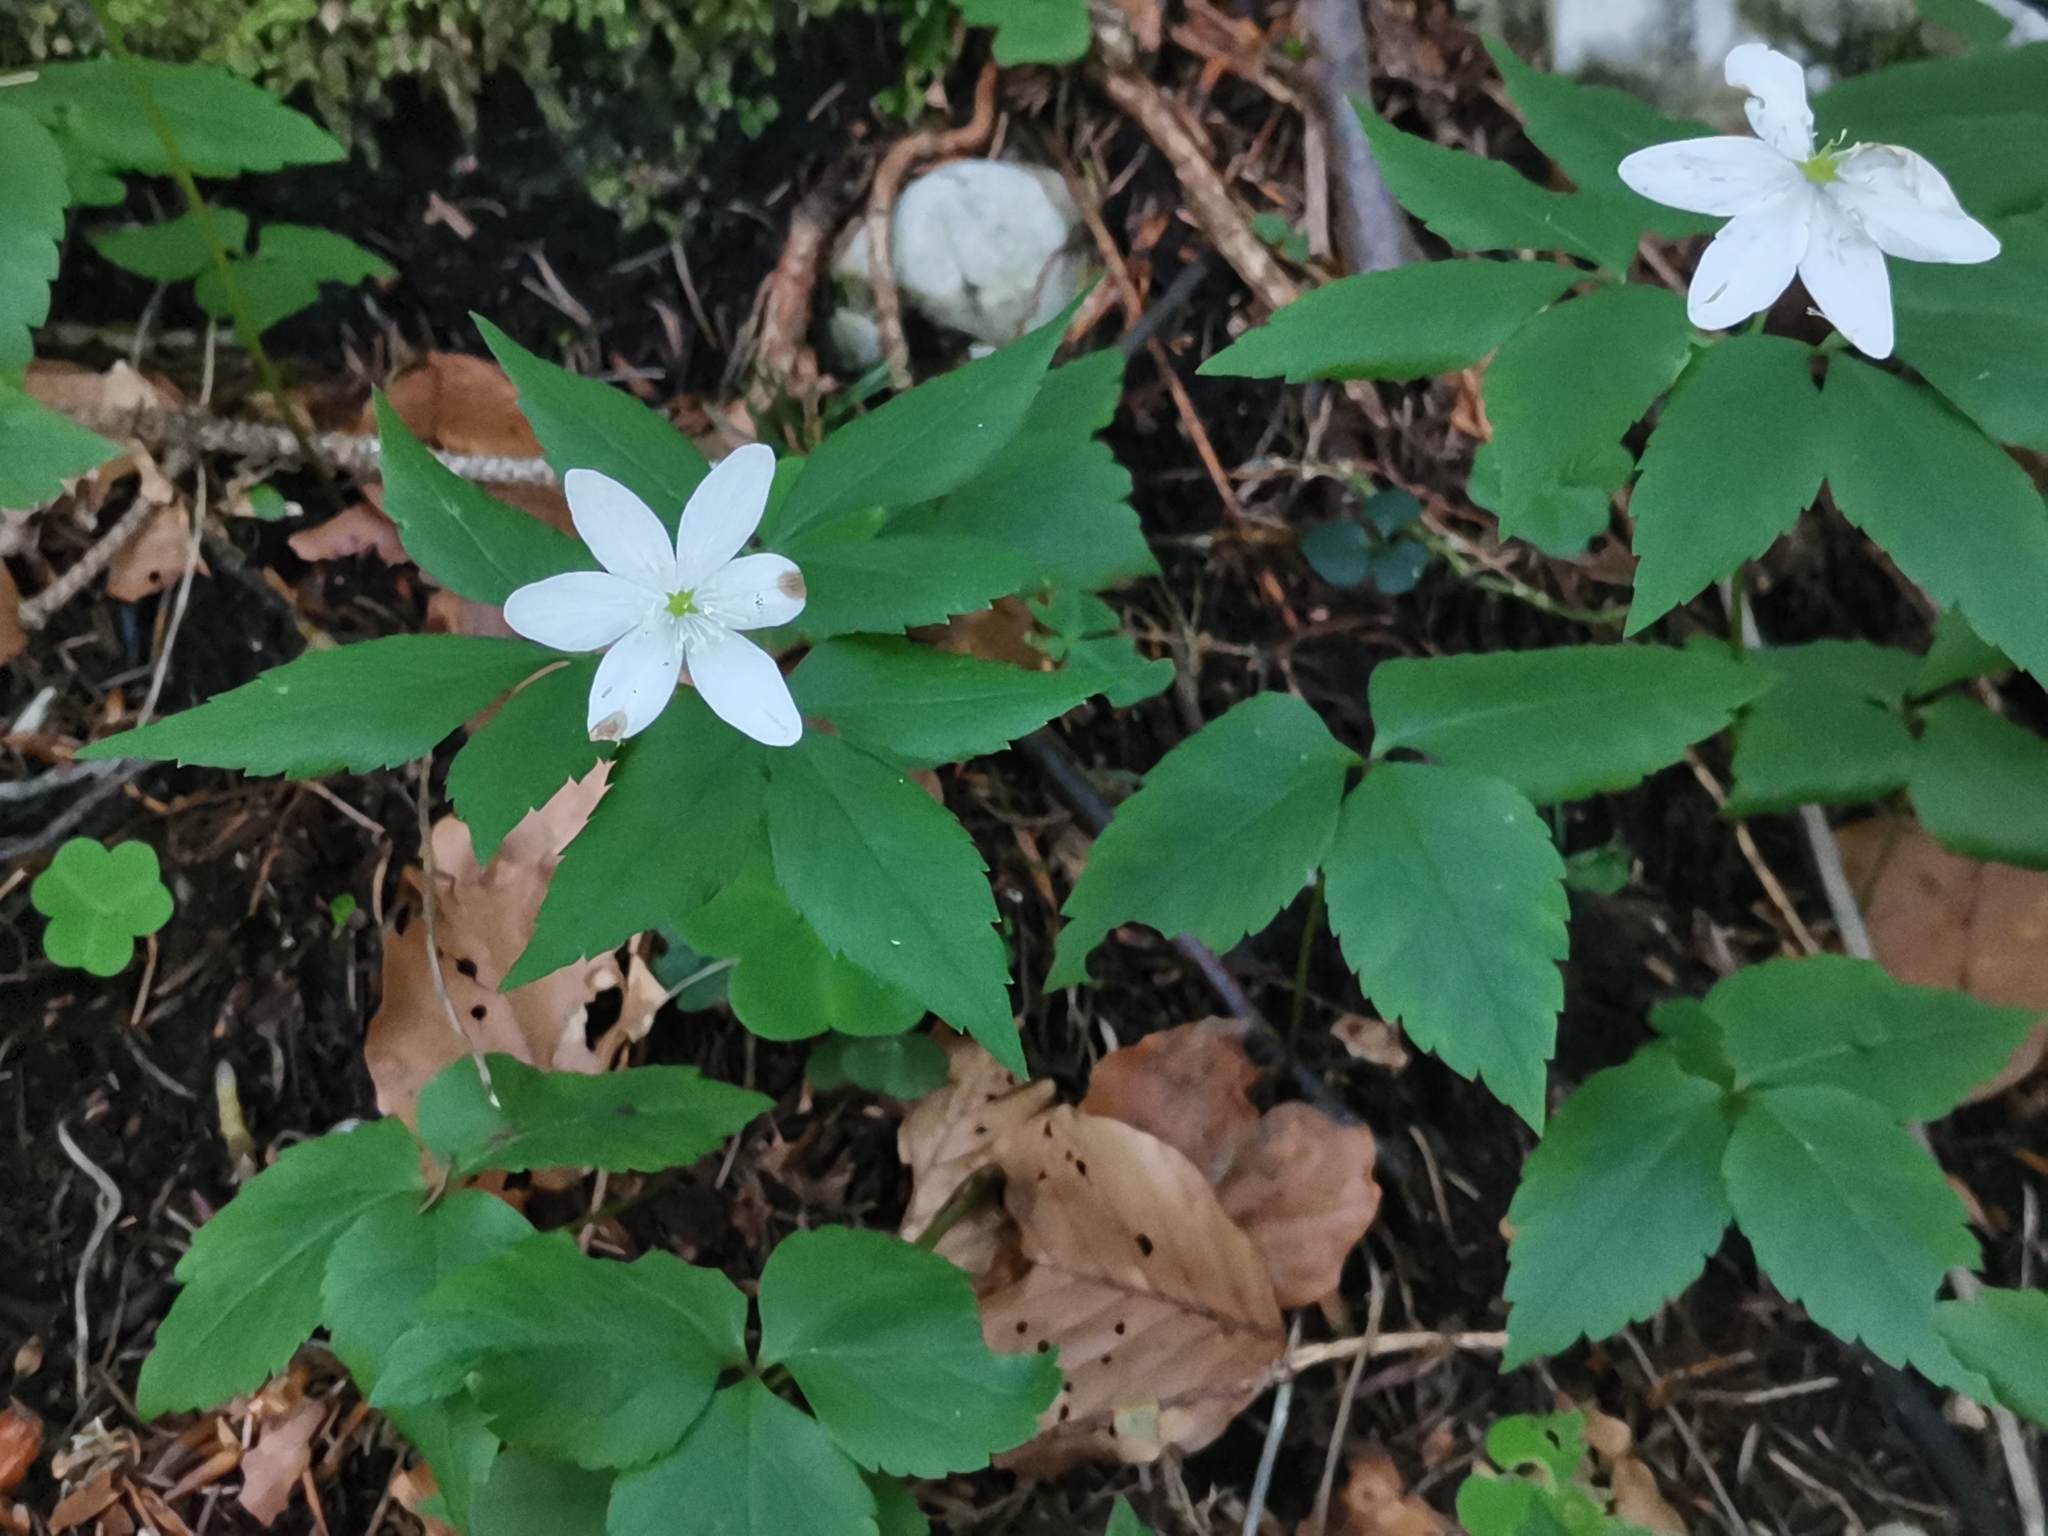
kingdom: Plantae
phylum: Tracheophyta
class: Magnoliopsida
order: Ranunculales
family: Ranunculaceae
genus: Anemone
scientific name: Anemone trifolia
